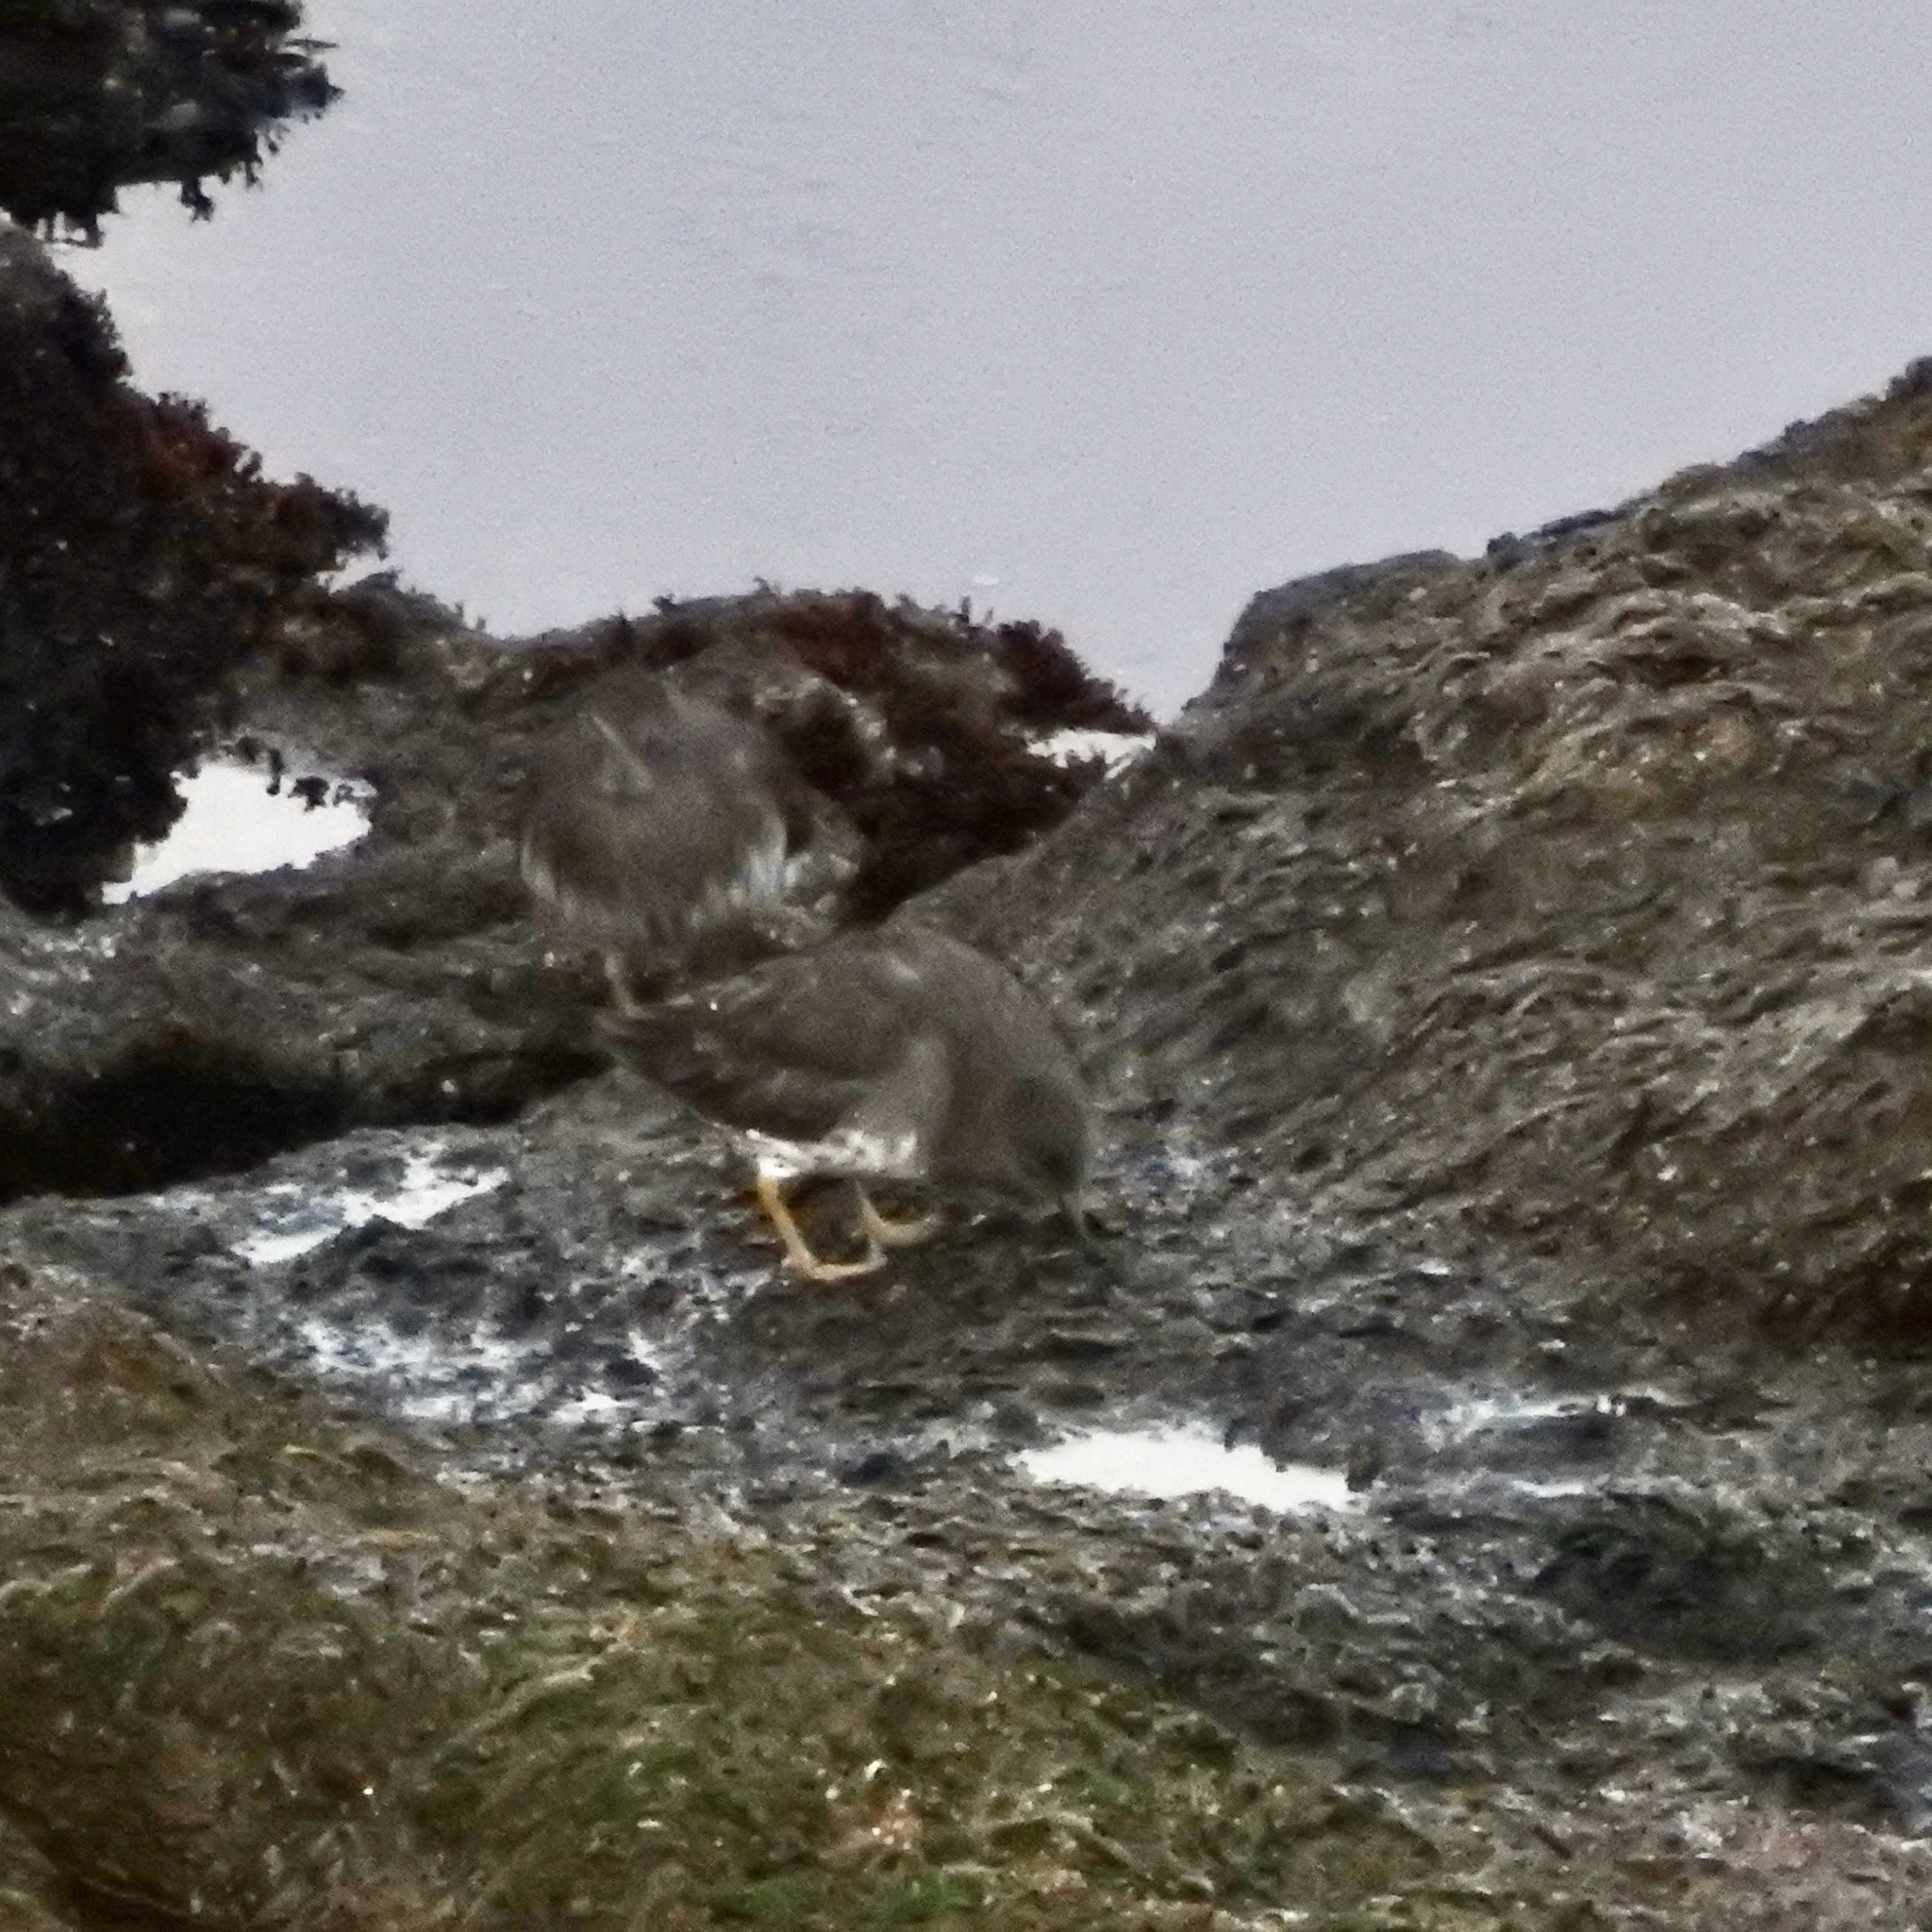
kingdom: Animalia
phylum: Chordata
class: Aves
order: Charadriiformes
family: Scolopacidae
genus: Arenaria
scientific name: Arenaria melanocephala
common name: Black turnstone
